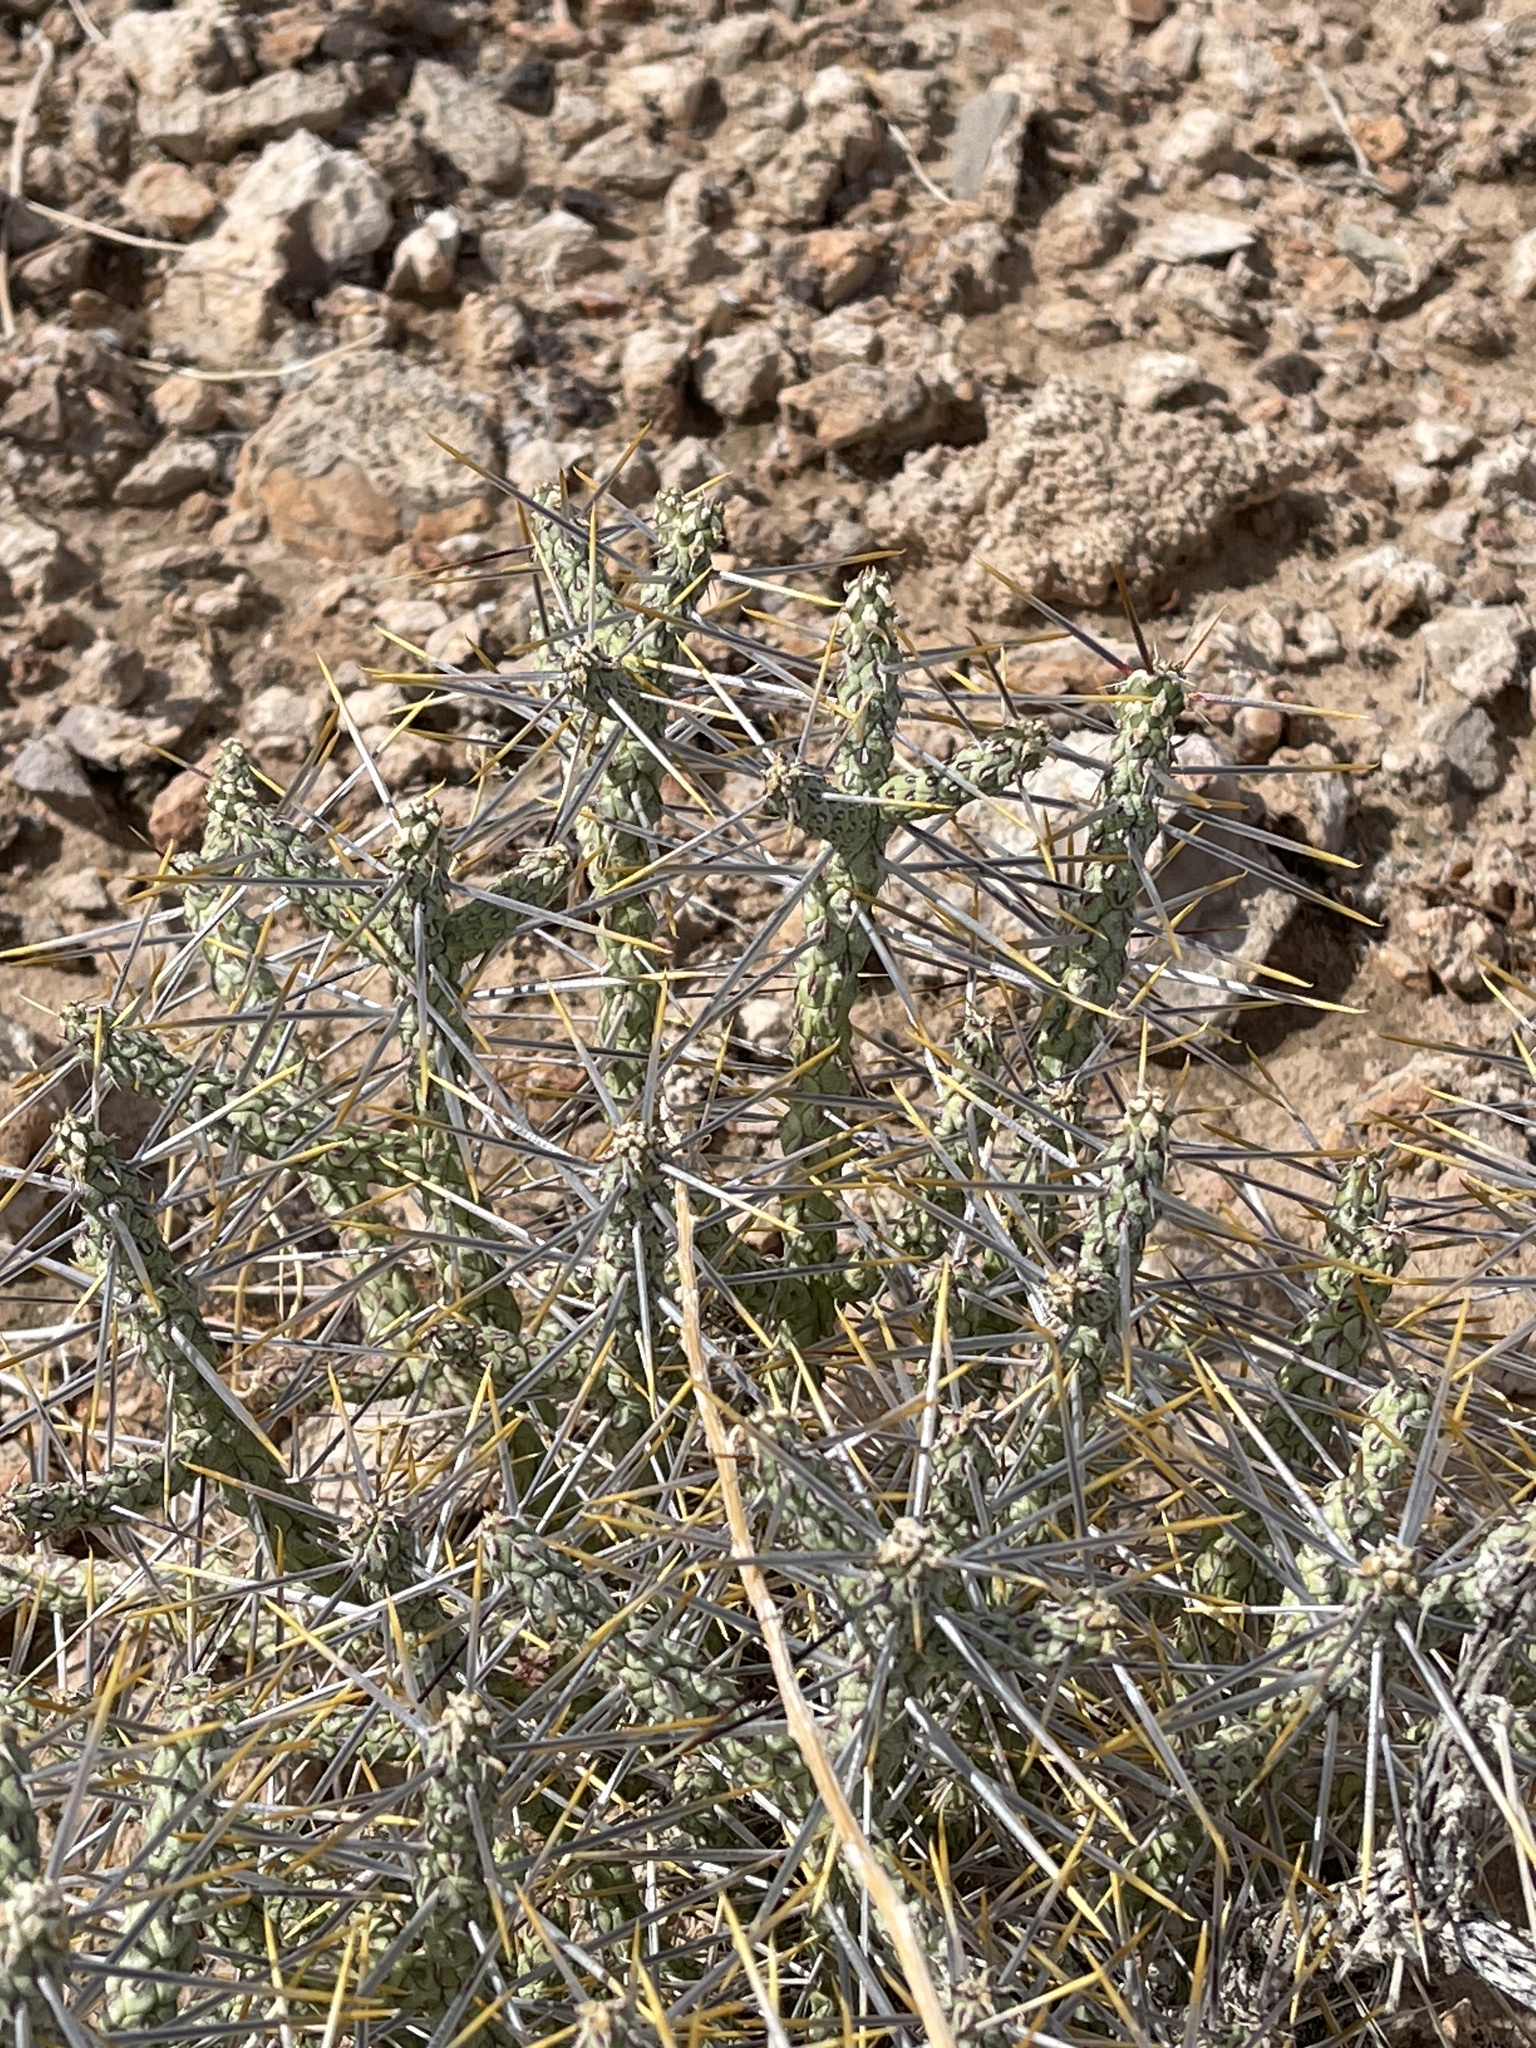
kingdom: Plantae
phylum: Tracheophyta
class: Magnoliopsida
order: Caryophyllales
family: Cactaceae
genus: Cylindropuntia
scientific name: Cylindropuntia ramosissima
